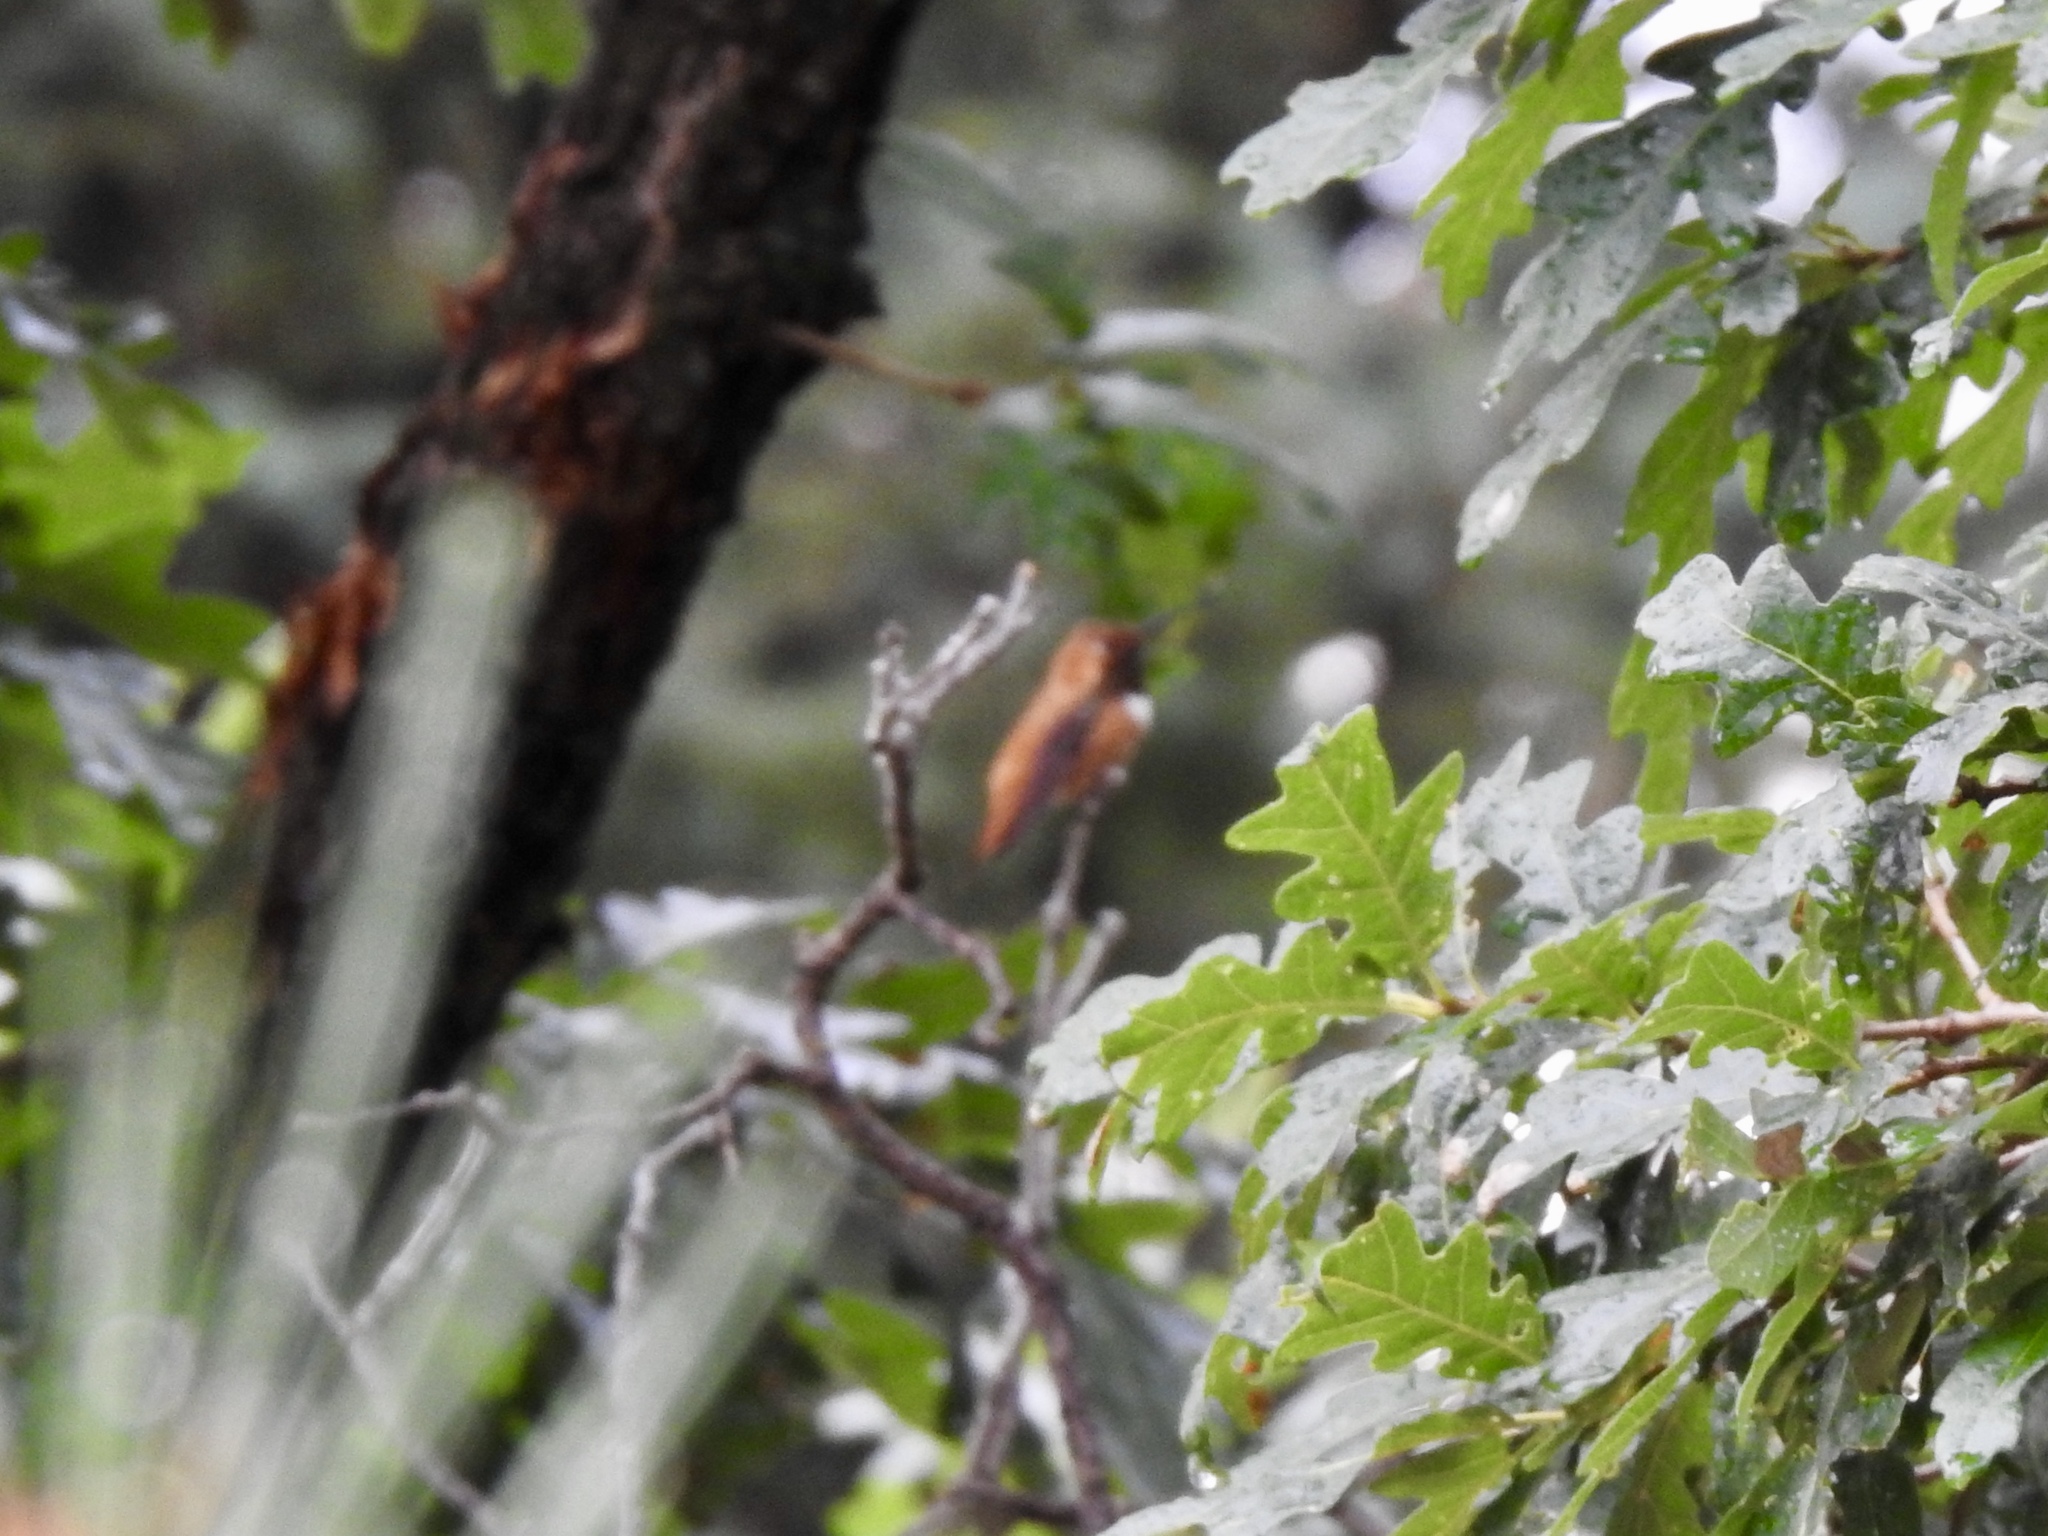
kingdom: Animalia
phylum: Chordata
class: Aves
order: Apodiformes
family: Trochilidae
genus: Selasphorus
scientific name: Selasphorus rufus
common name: Rufous hummingbird
